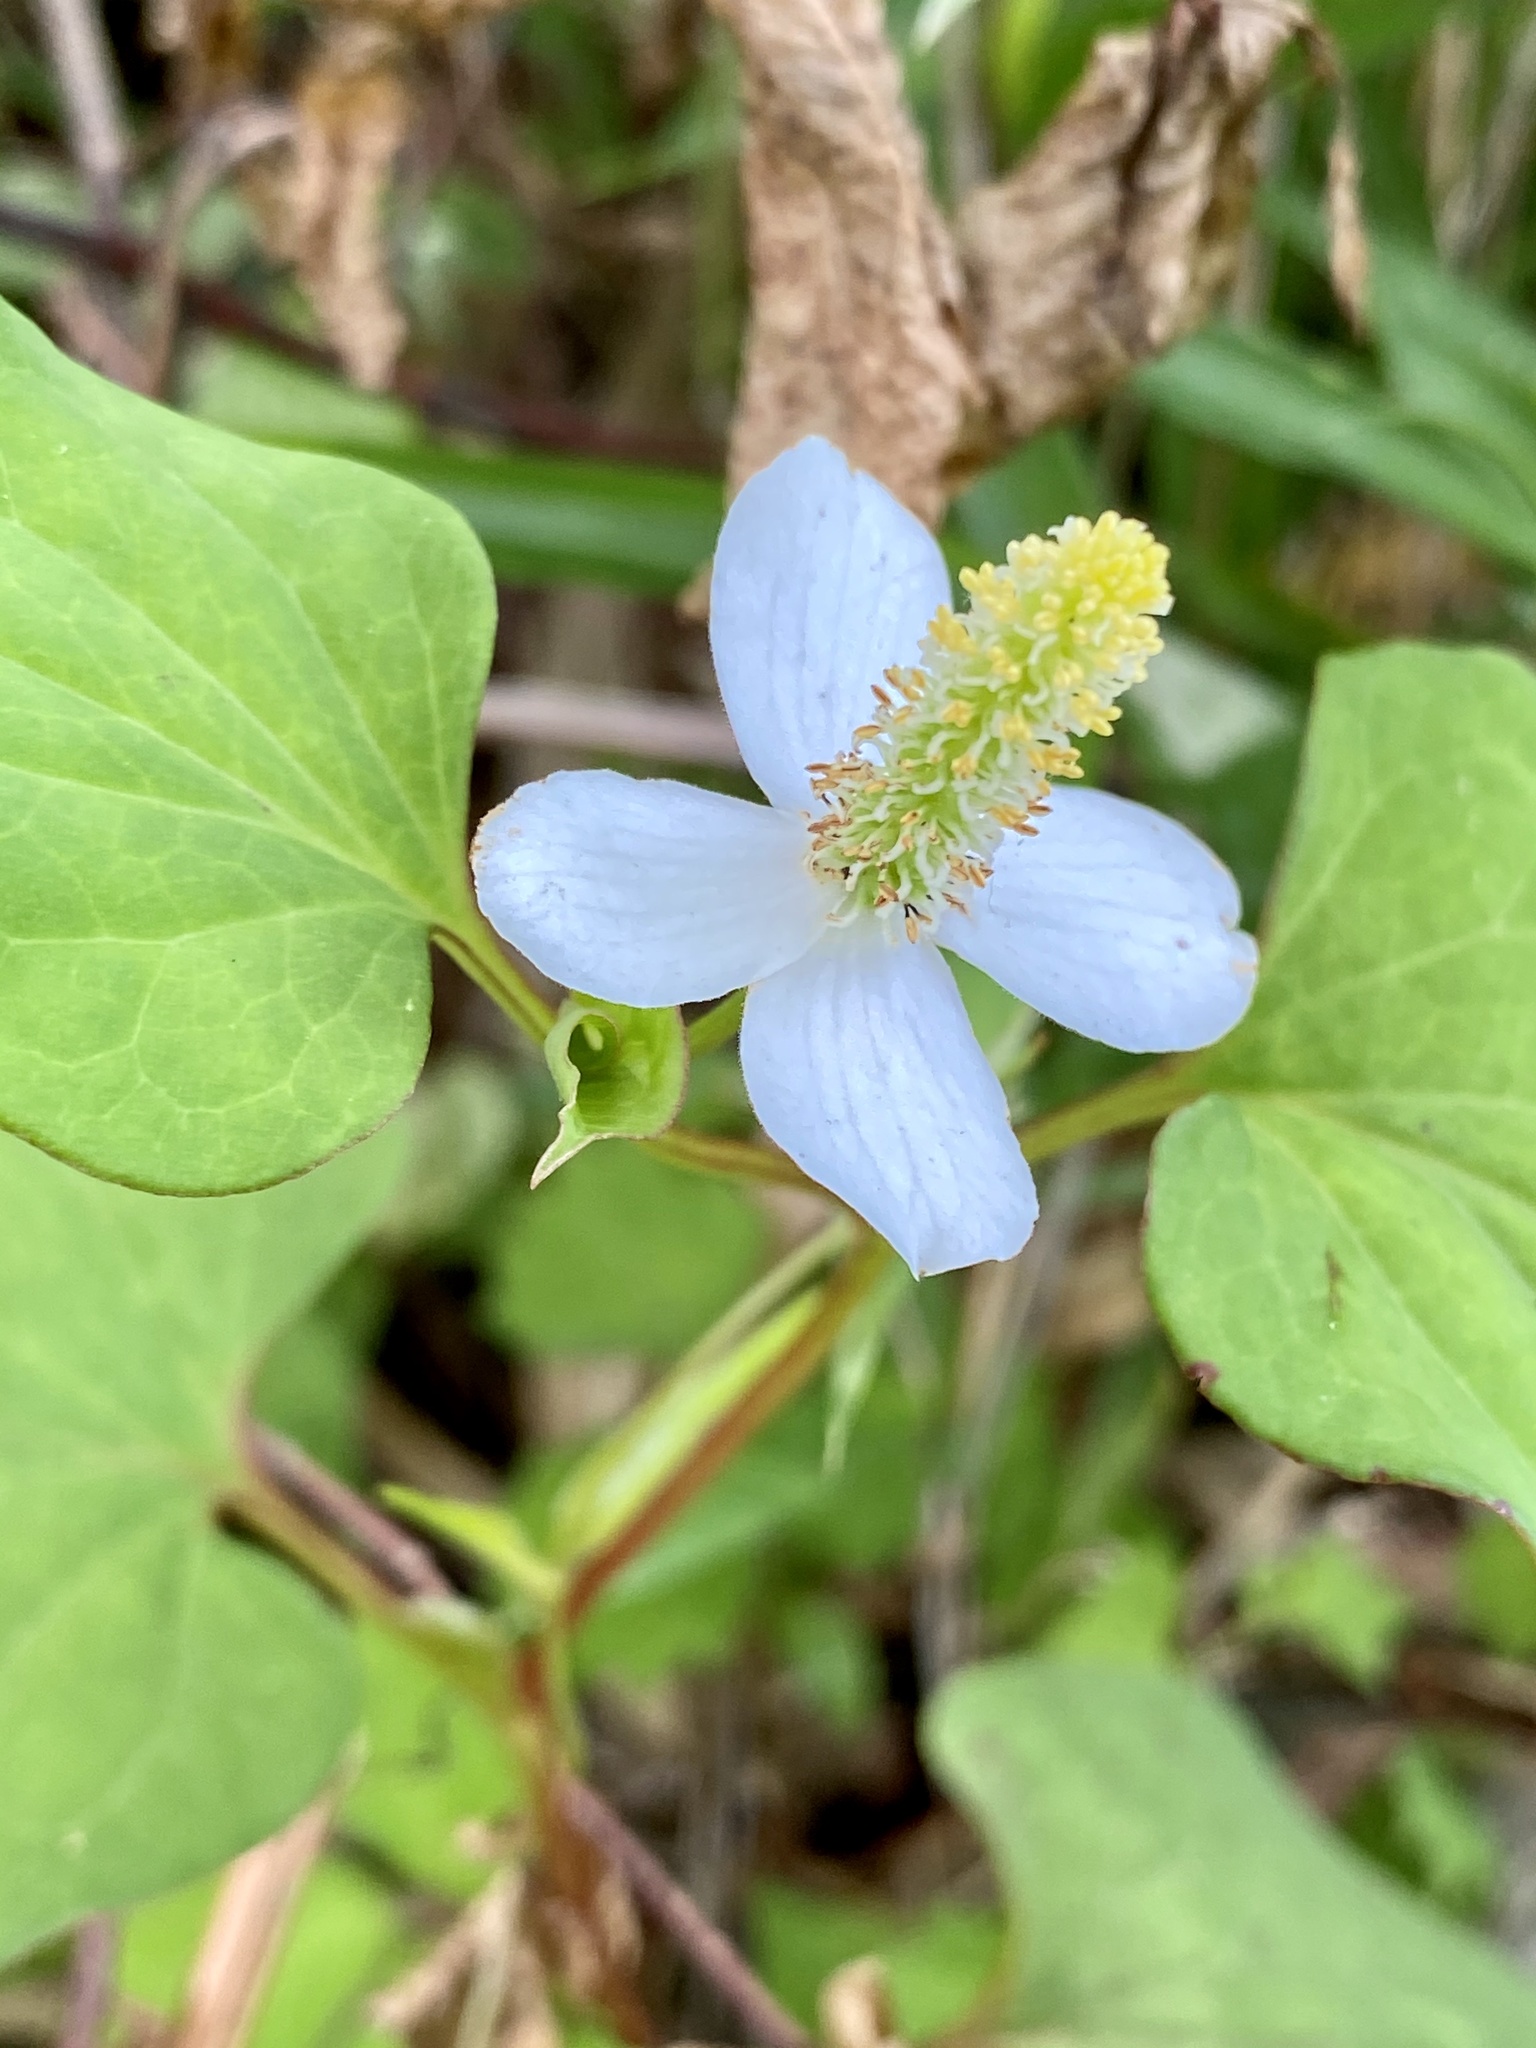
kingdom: Plantae
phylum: Tracheophyta
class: Magnoliopsida
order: Piperales
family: Saururaceae
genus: Houttuynia
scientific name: Houttuynia cordata
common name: Chameleon
